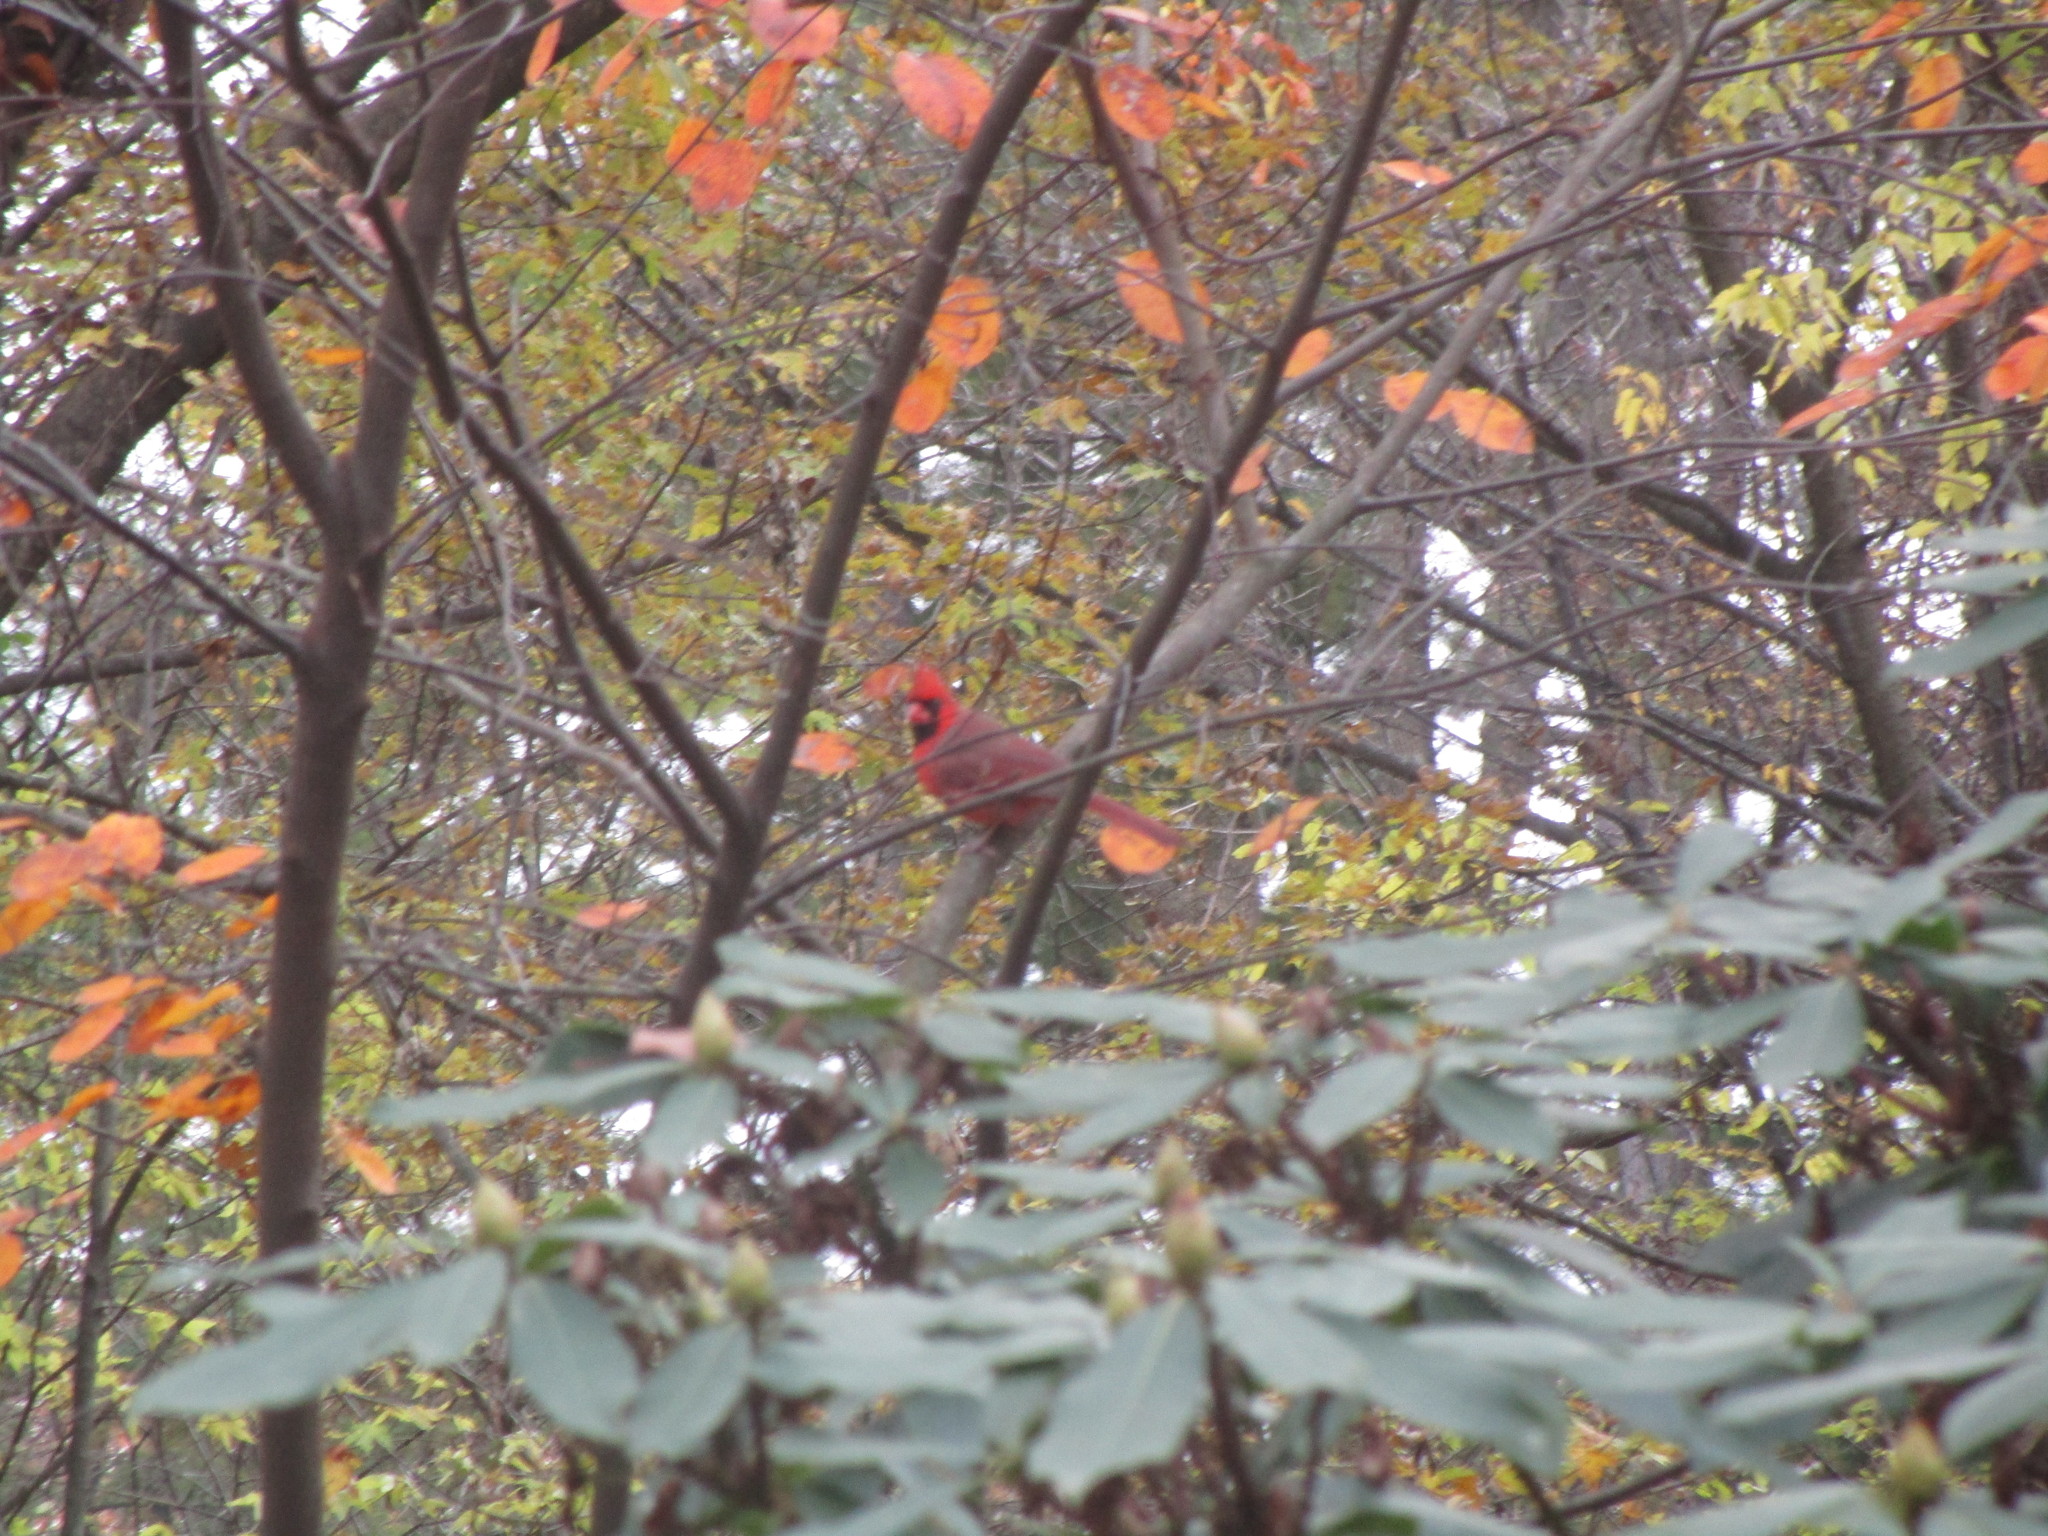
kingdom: Animalia
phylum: Chordata
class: Aves
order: Passeriformes
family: Cardinalidae
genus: Cardinalis
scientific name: Cardinalis cardinalis
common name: Northern cardinal
